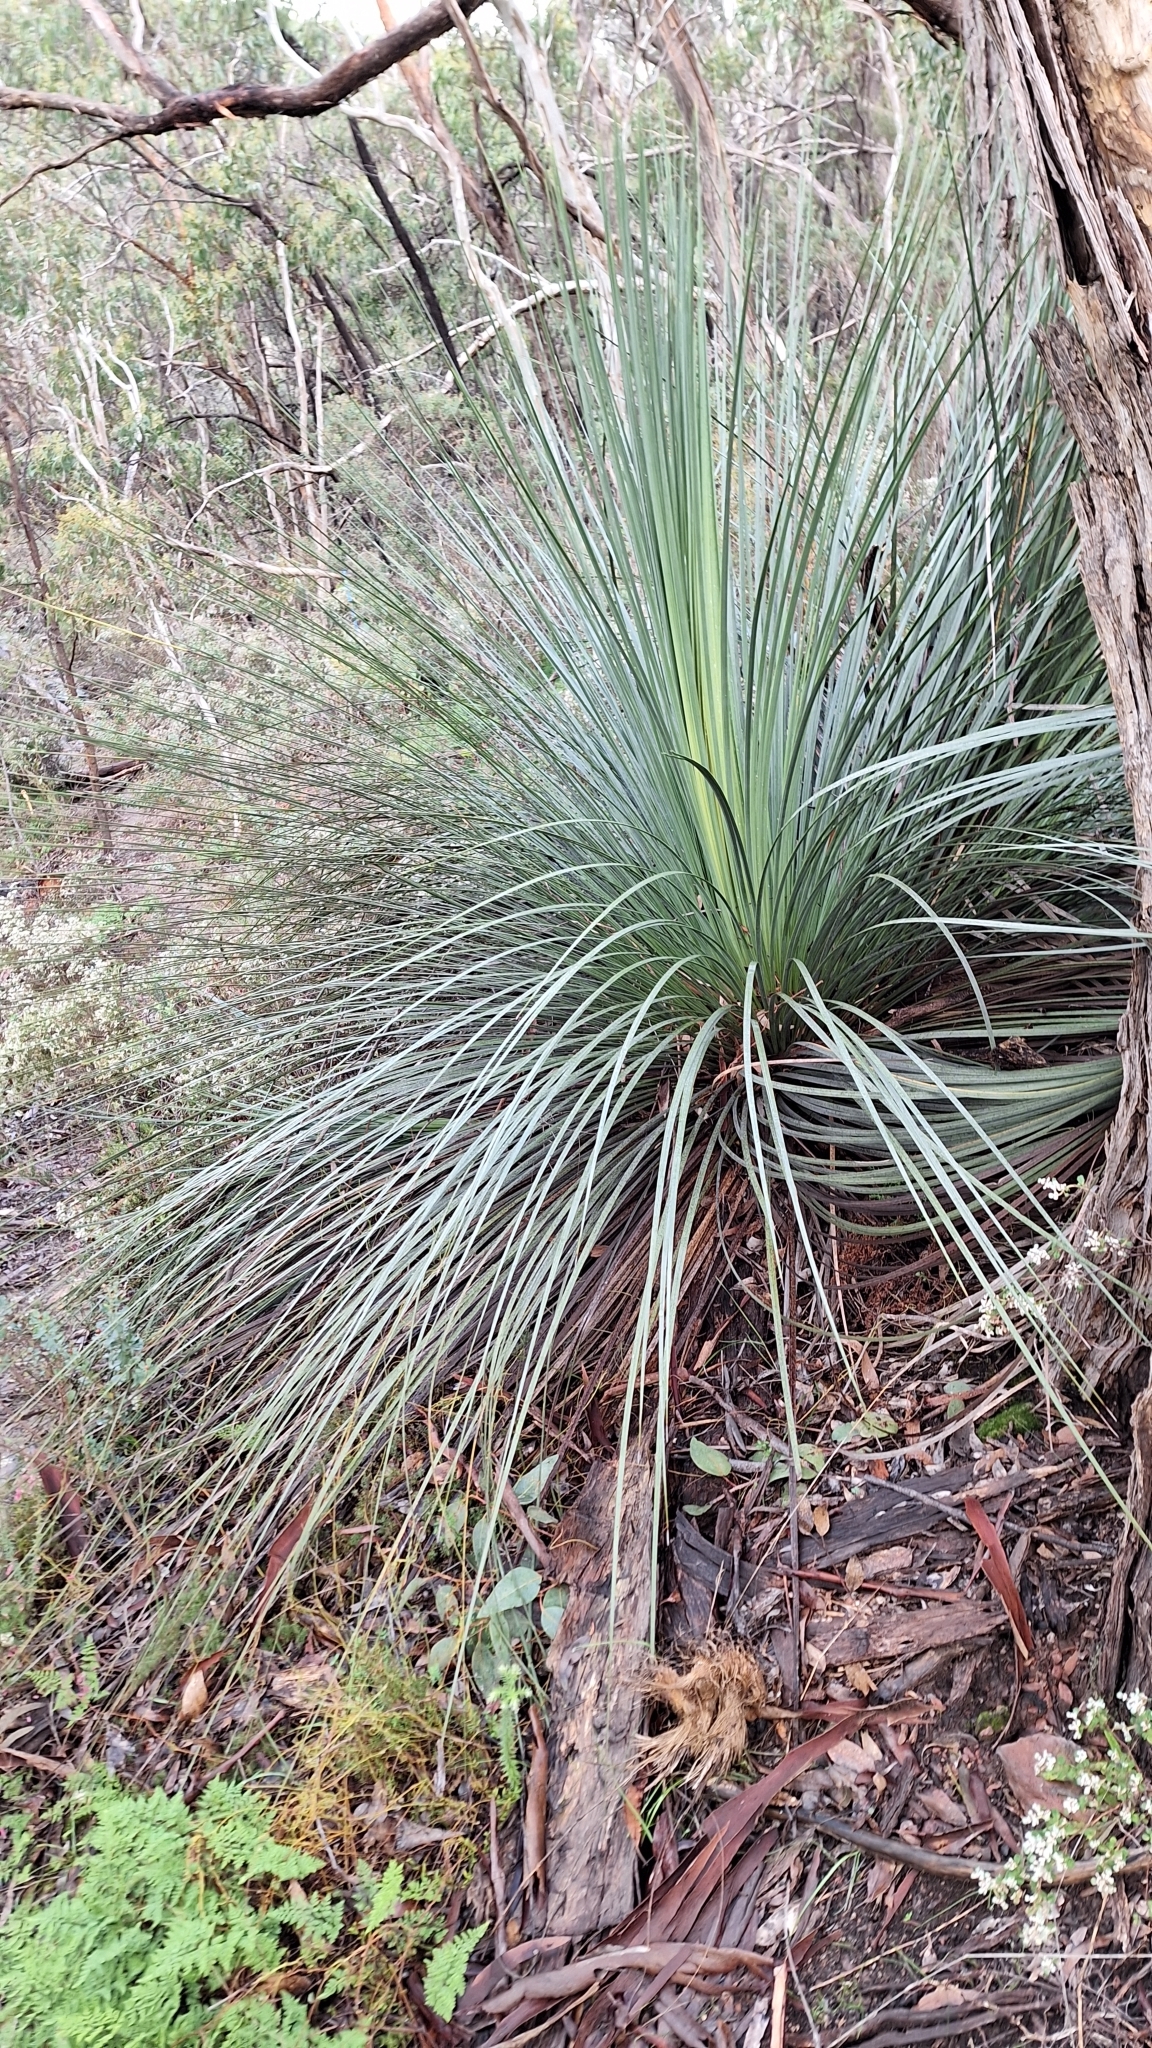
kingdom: Plantae
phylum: Tracheophyta
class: Liliopsida
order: Asparagales
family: Asphodelaceae
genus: Xanthorrhoea
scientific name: Xanthorrhoea semiplana
